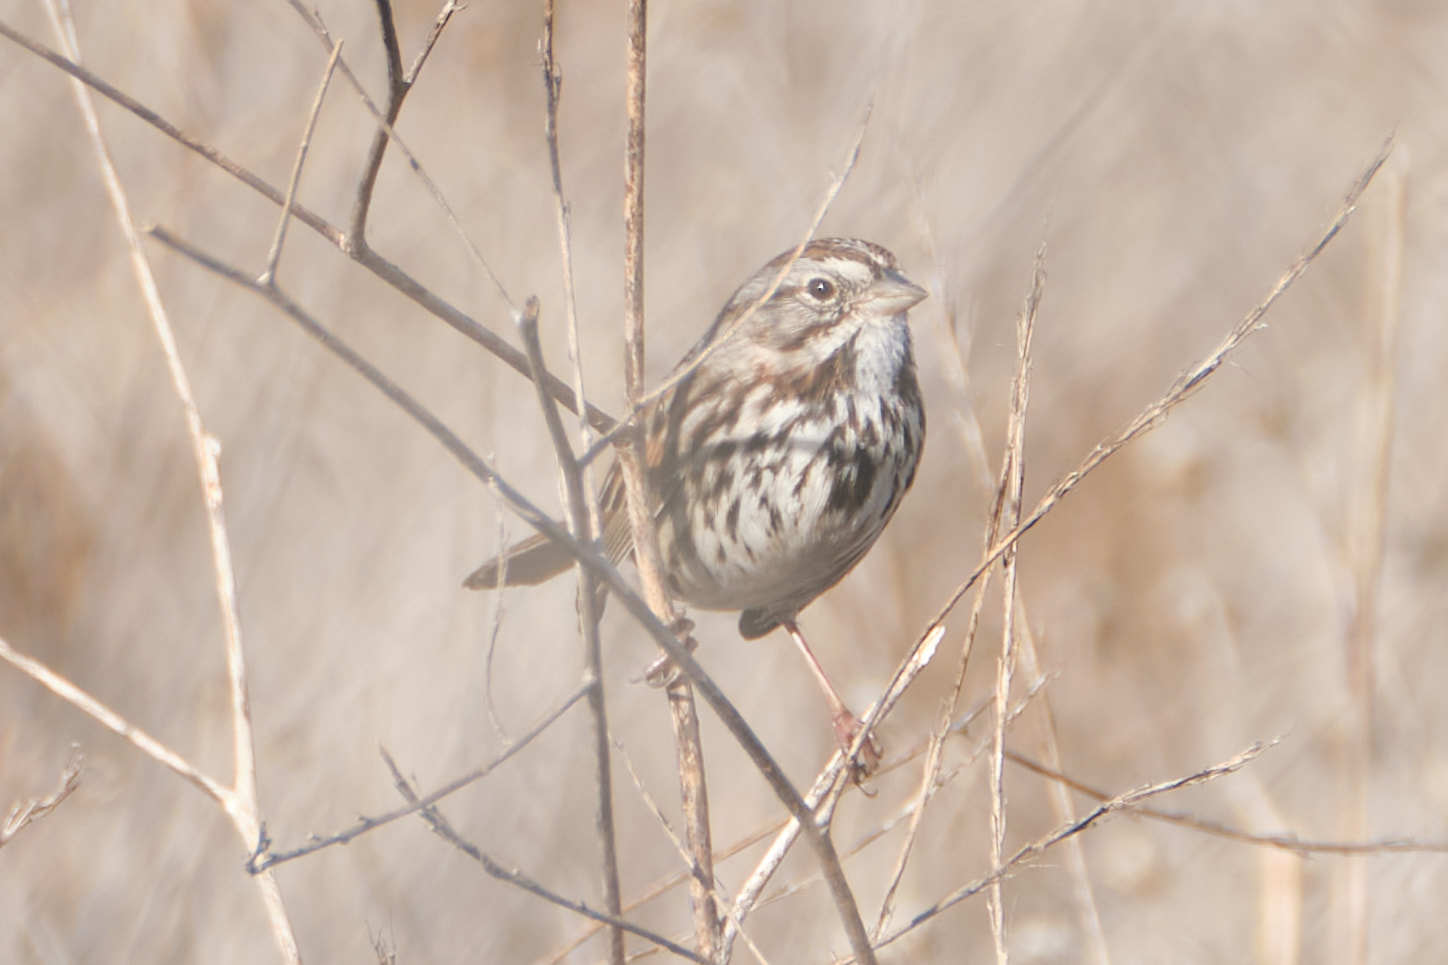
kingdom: Animalia
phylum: Chordata
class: Aves
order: Passeriformes
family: Passerellidae
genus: Melospiza
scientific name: Melospiza melodia
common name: Song sparrow
